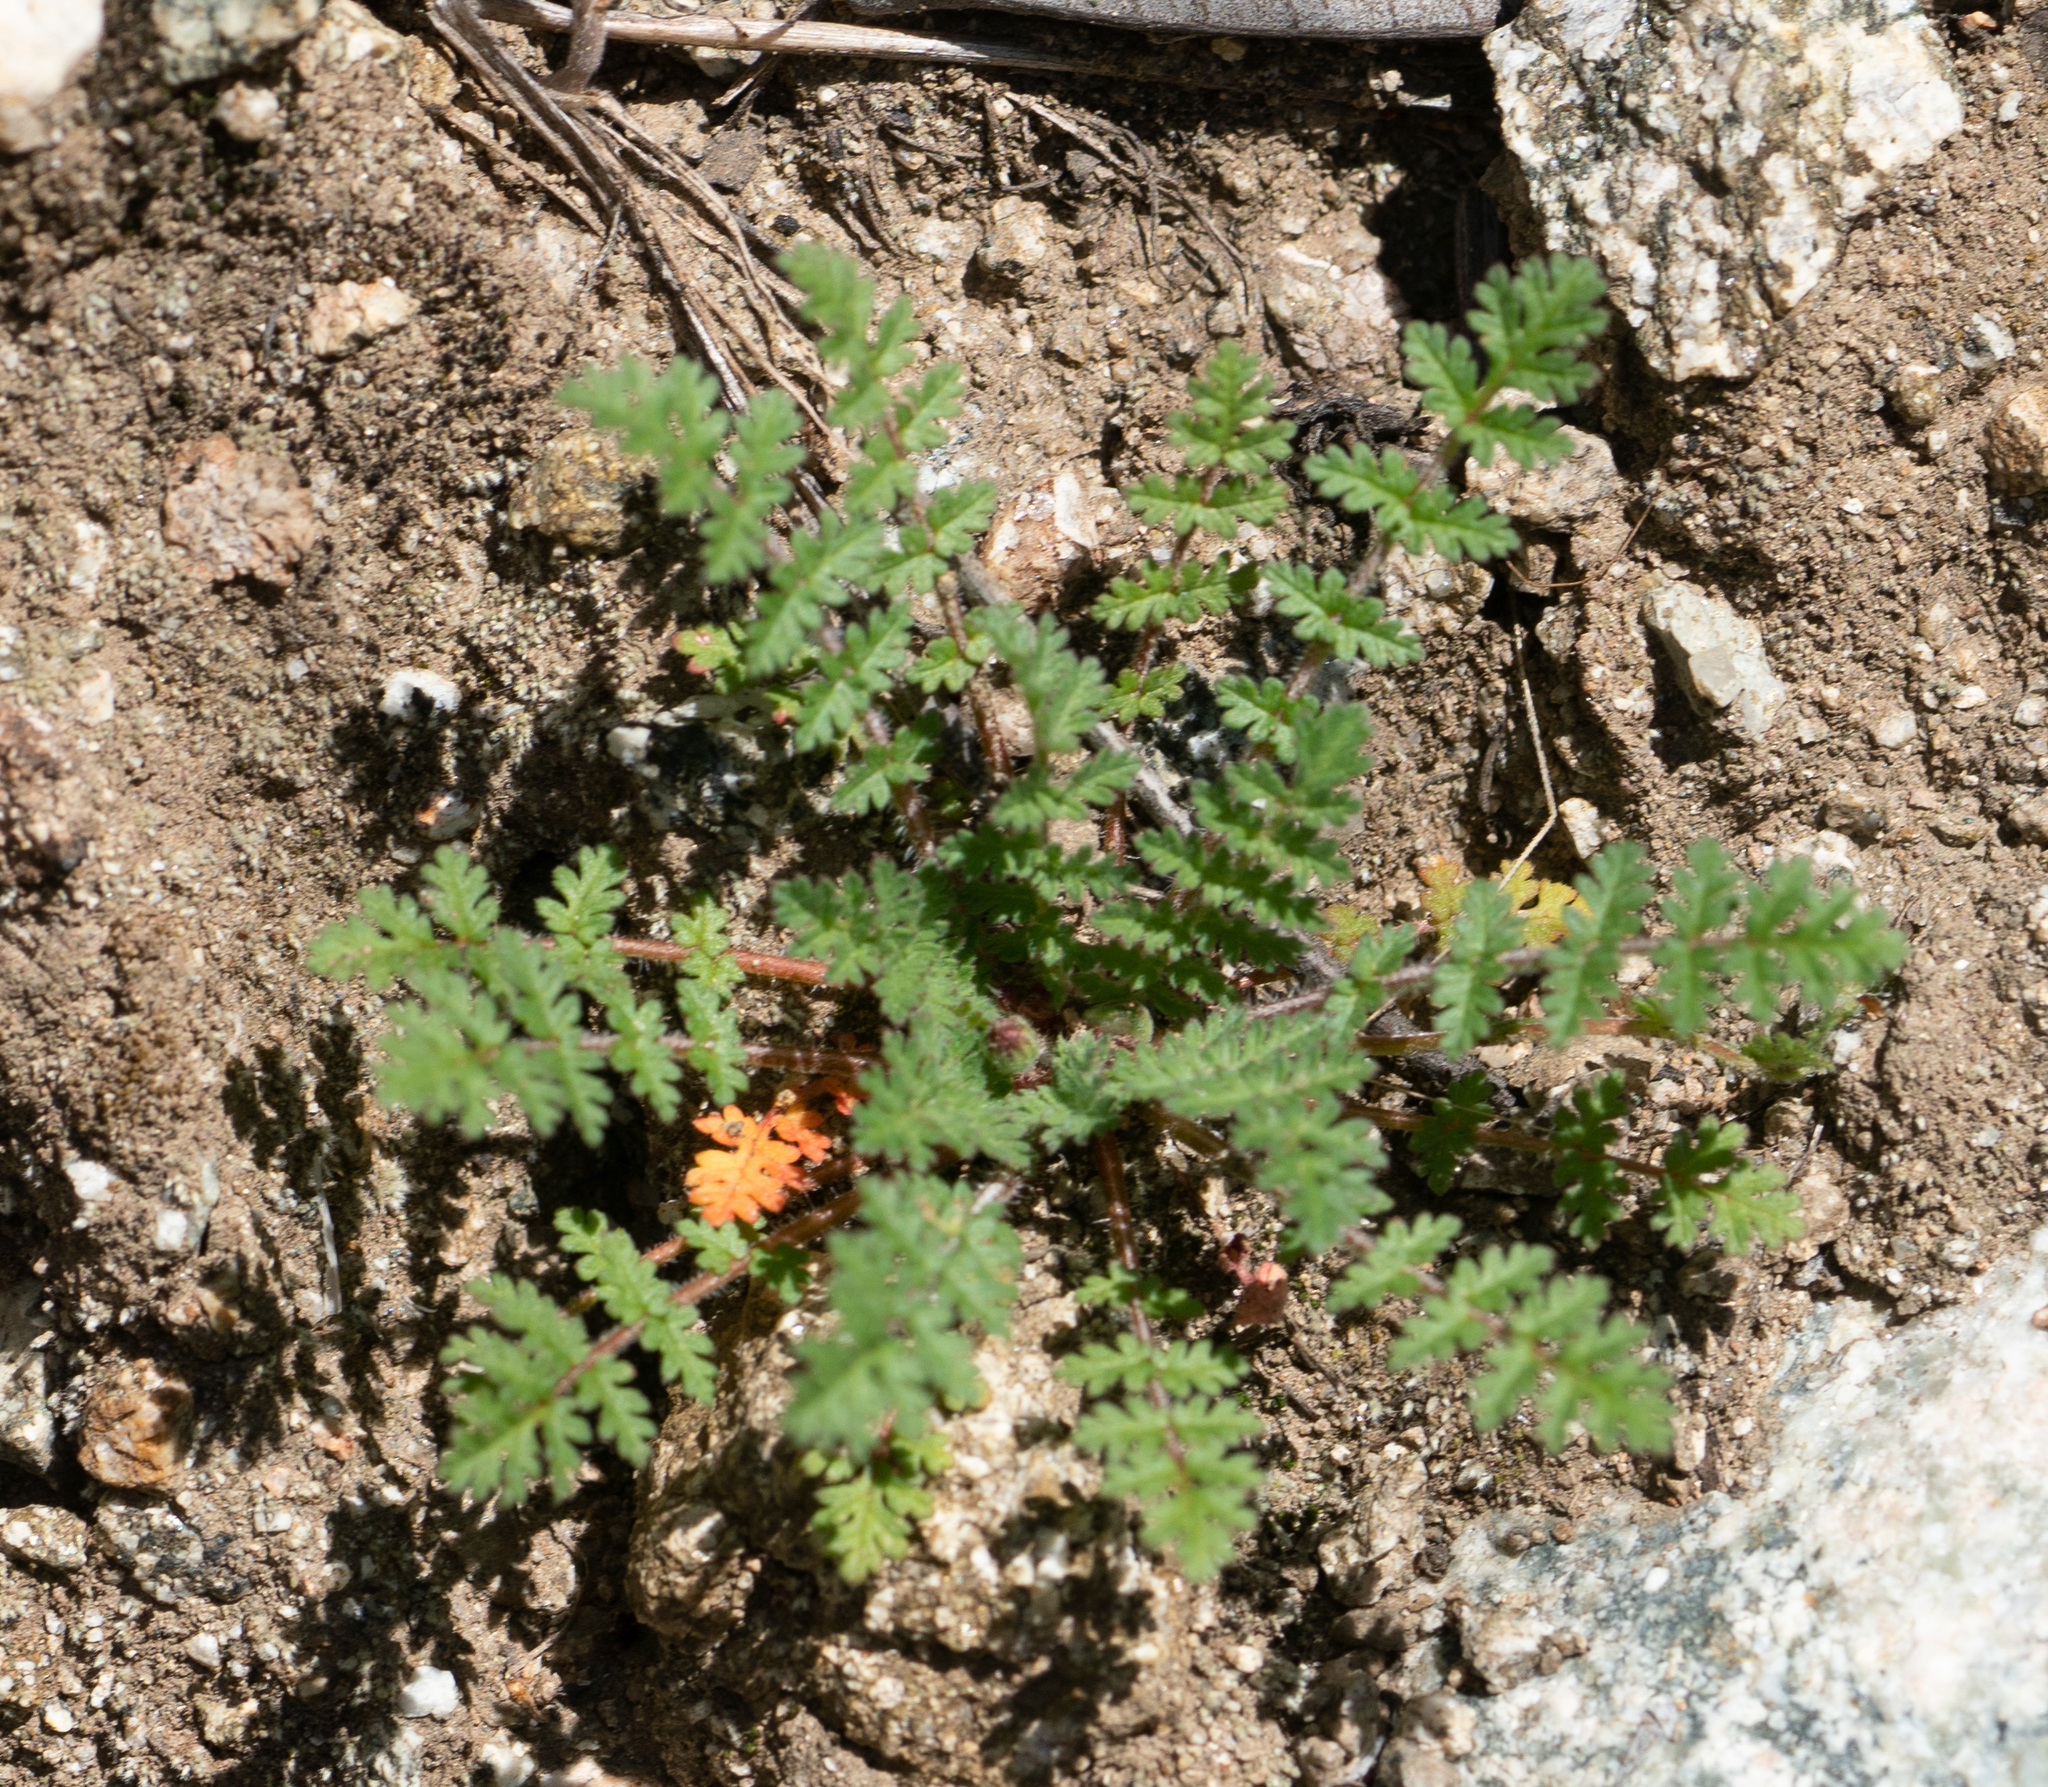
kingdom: Plantae
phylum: Tracheophyta
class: Magnoliopsida
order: Geraniales
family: Geraniaceae
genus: Erodium
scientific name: Erodium cicutarium
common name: Common stork's-bill
